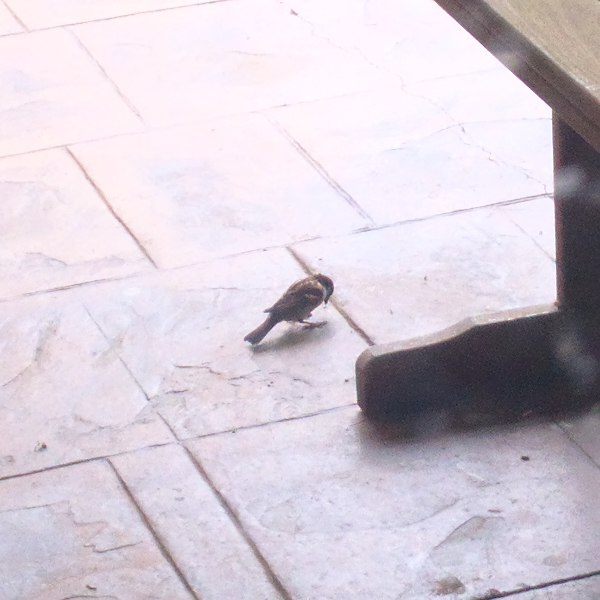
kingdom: Animalia
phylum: Chordata
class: Aves
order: Passeriformes
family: Passeridae
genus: Passer
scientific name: Passer domesticus
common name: House sparrow
